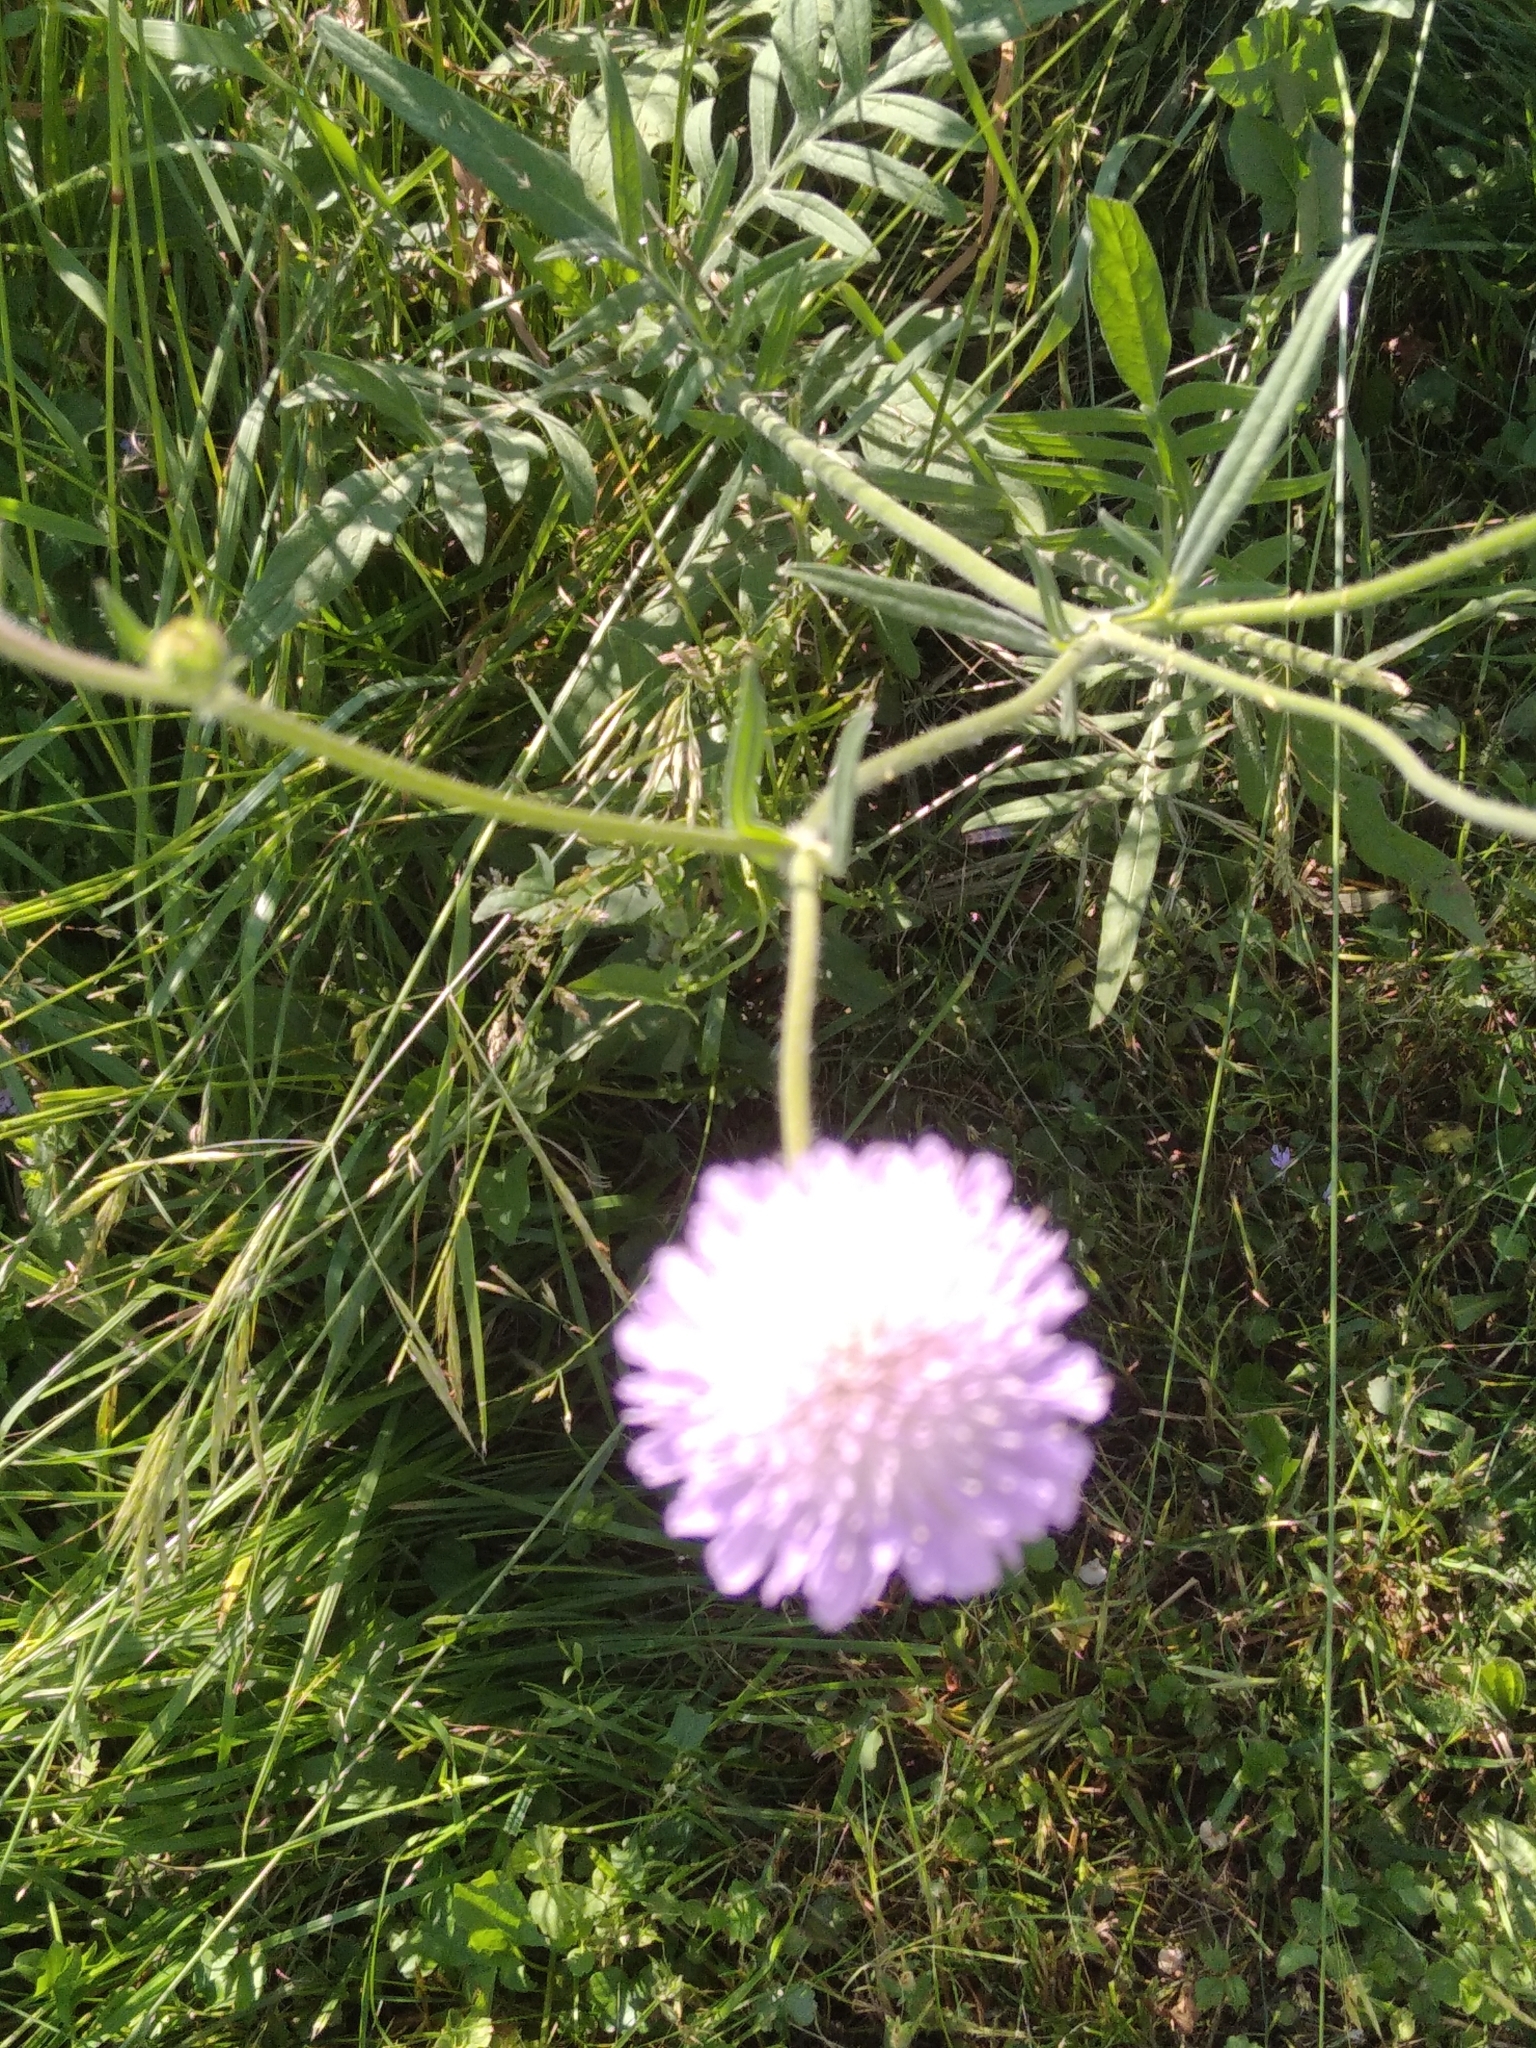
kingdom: Plantae
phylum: Tracheophyta
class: Magnoliopsida
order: Dipsacales
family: Caprifoliaceae
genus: Knautia
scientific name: Knautia arvensis
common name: Field scabiosa
